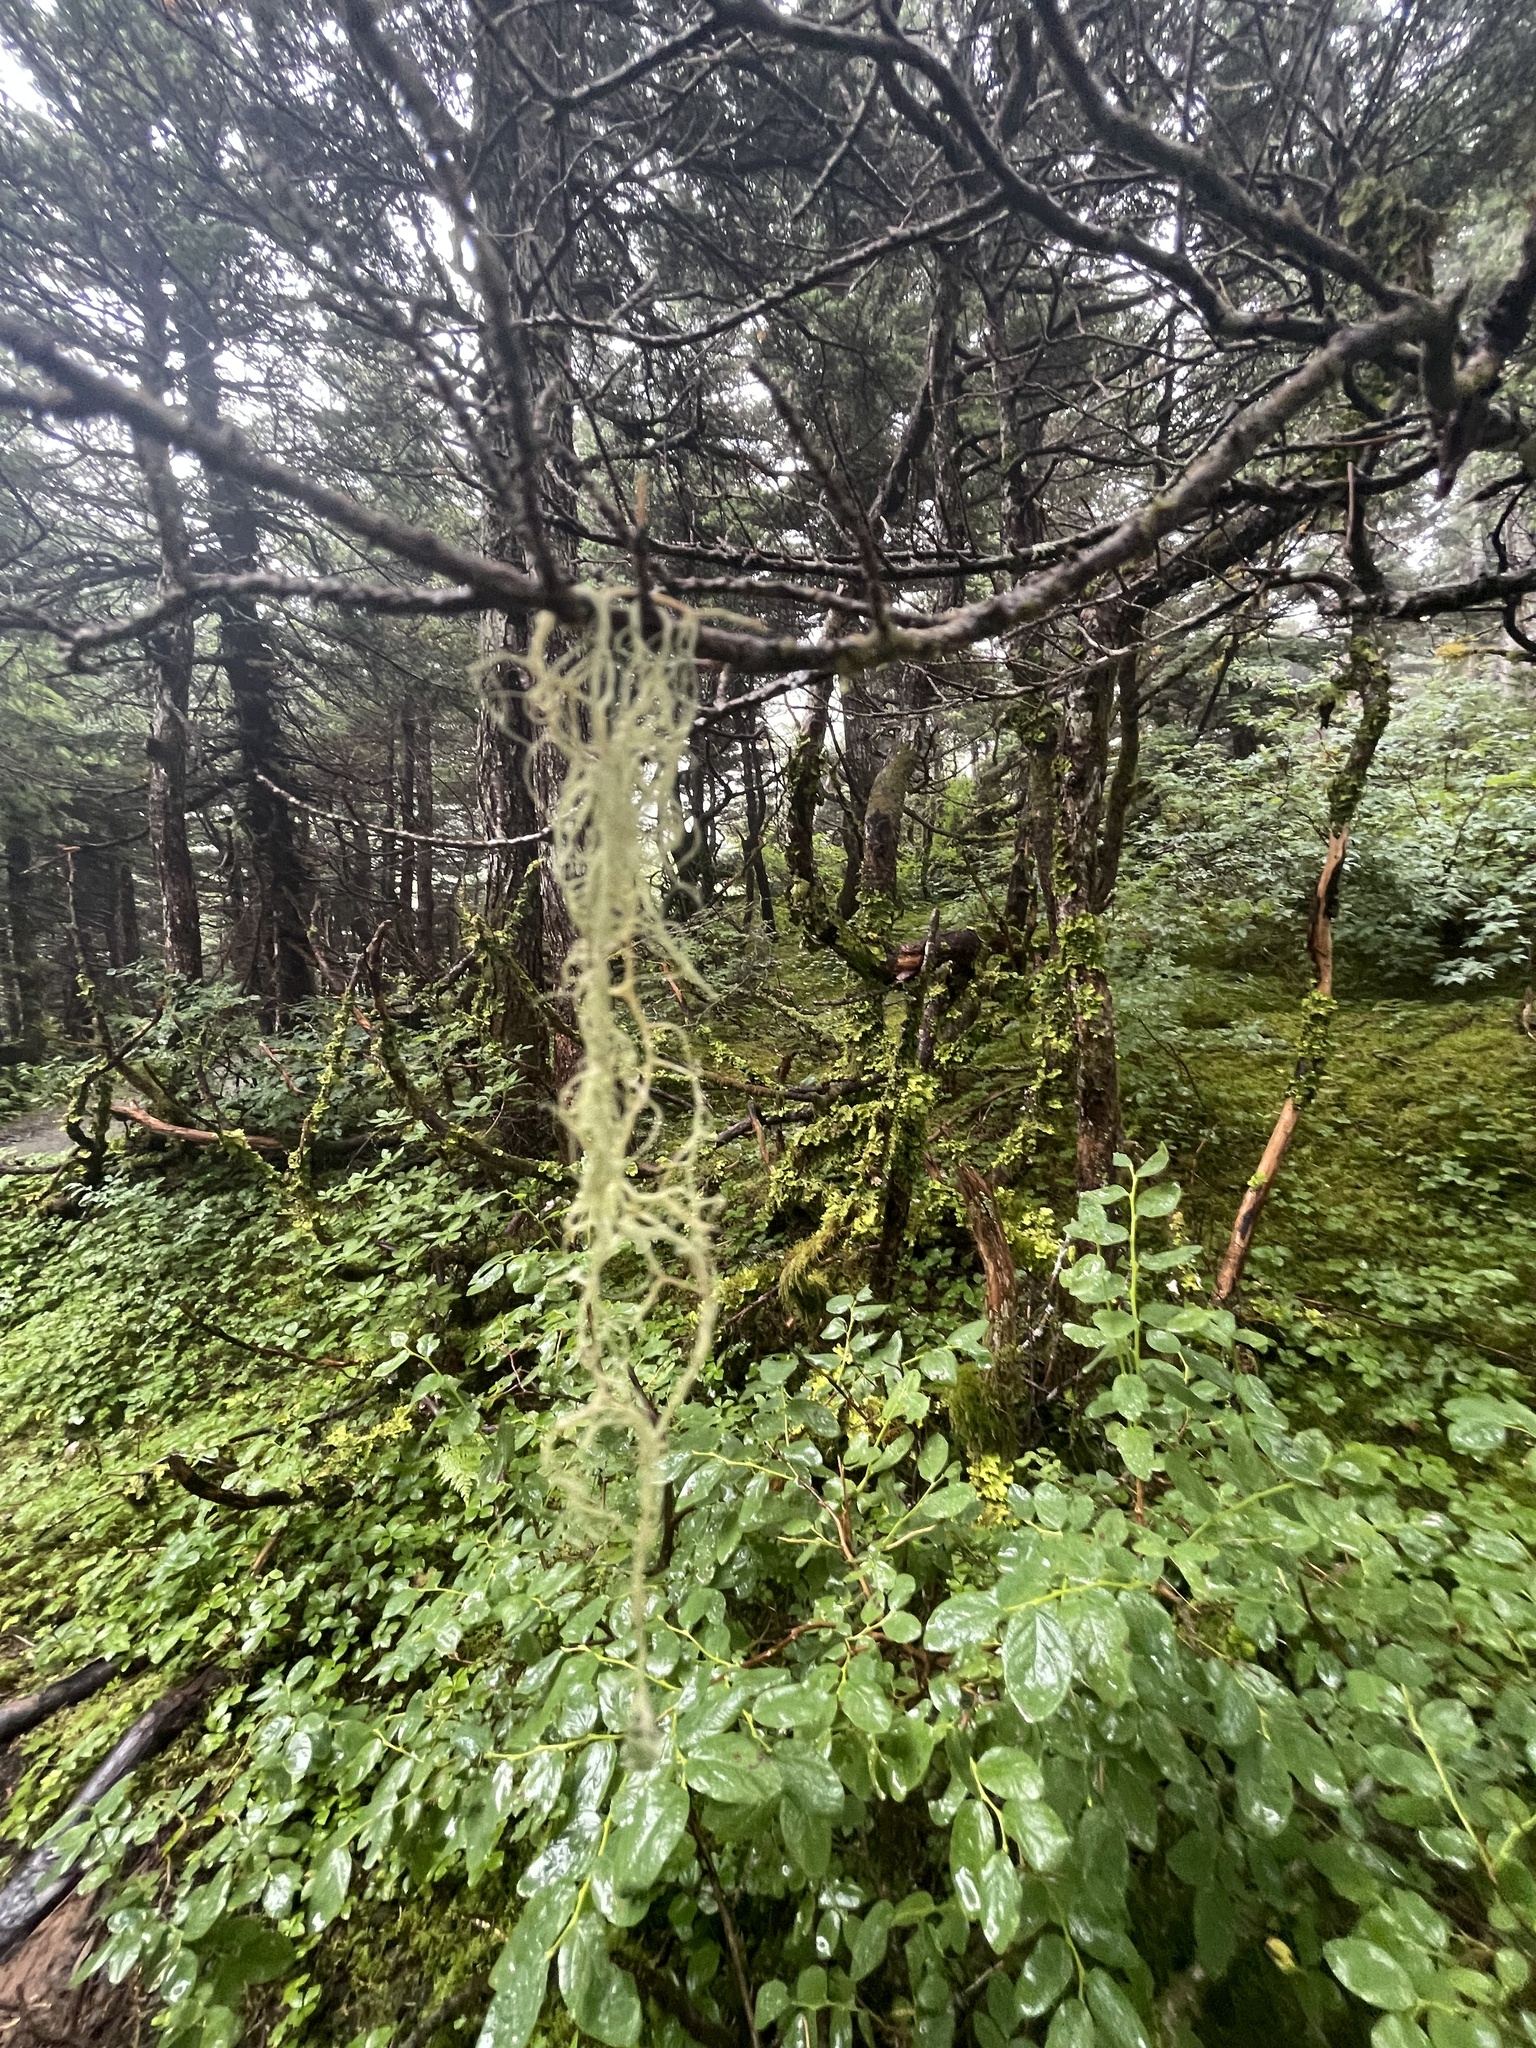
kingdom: Fungi
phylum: Ascomycota
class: Lecanoromycetes
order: Lecanorales
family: Parmeliaceae
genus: Alectoria
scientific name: Alectoria sarmentosa
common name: Witch's hair
